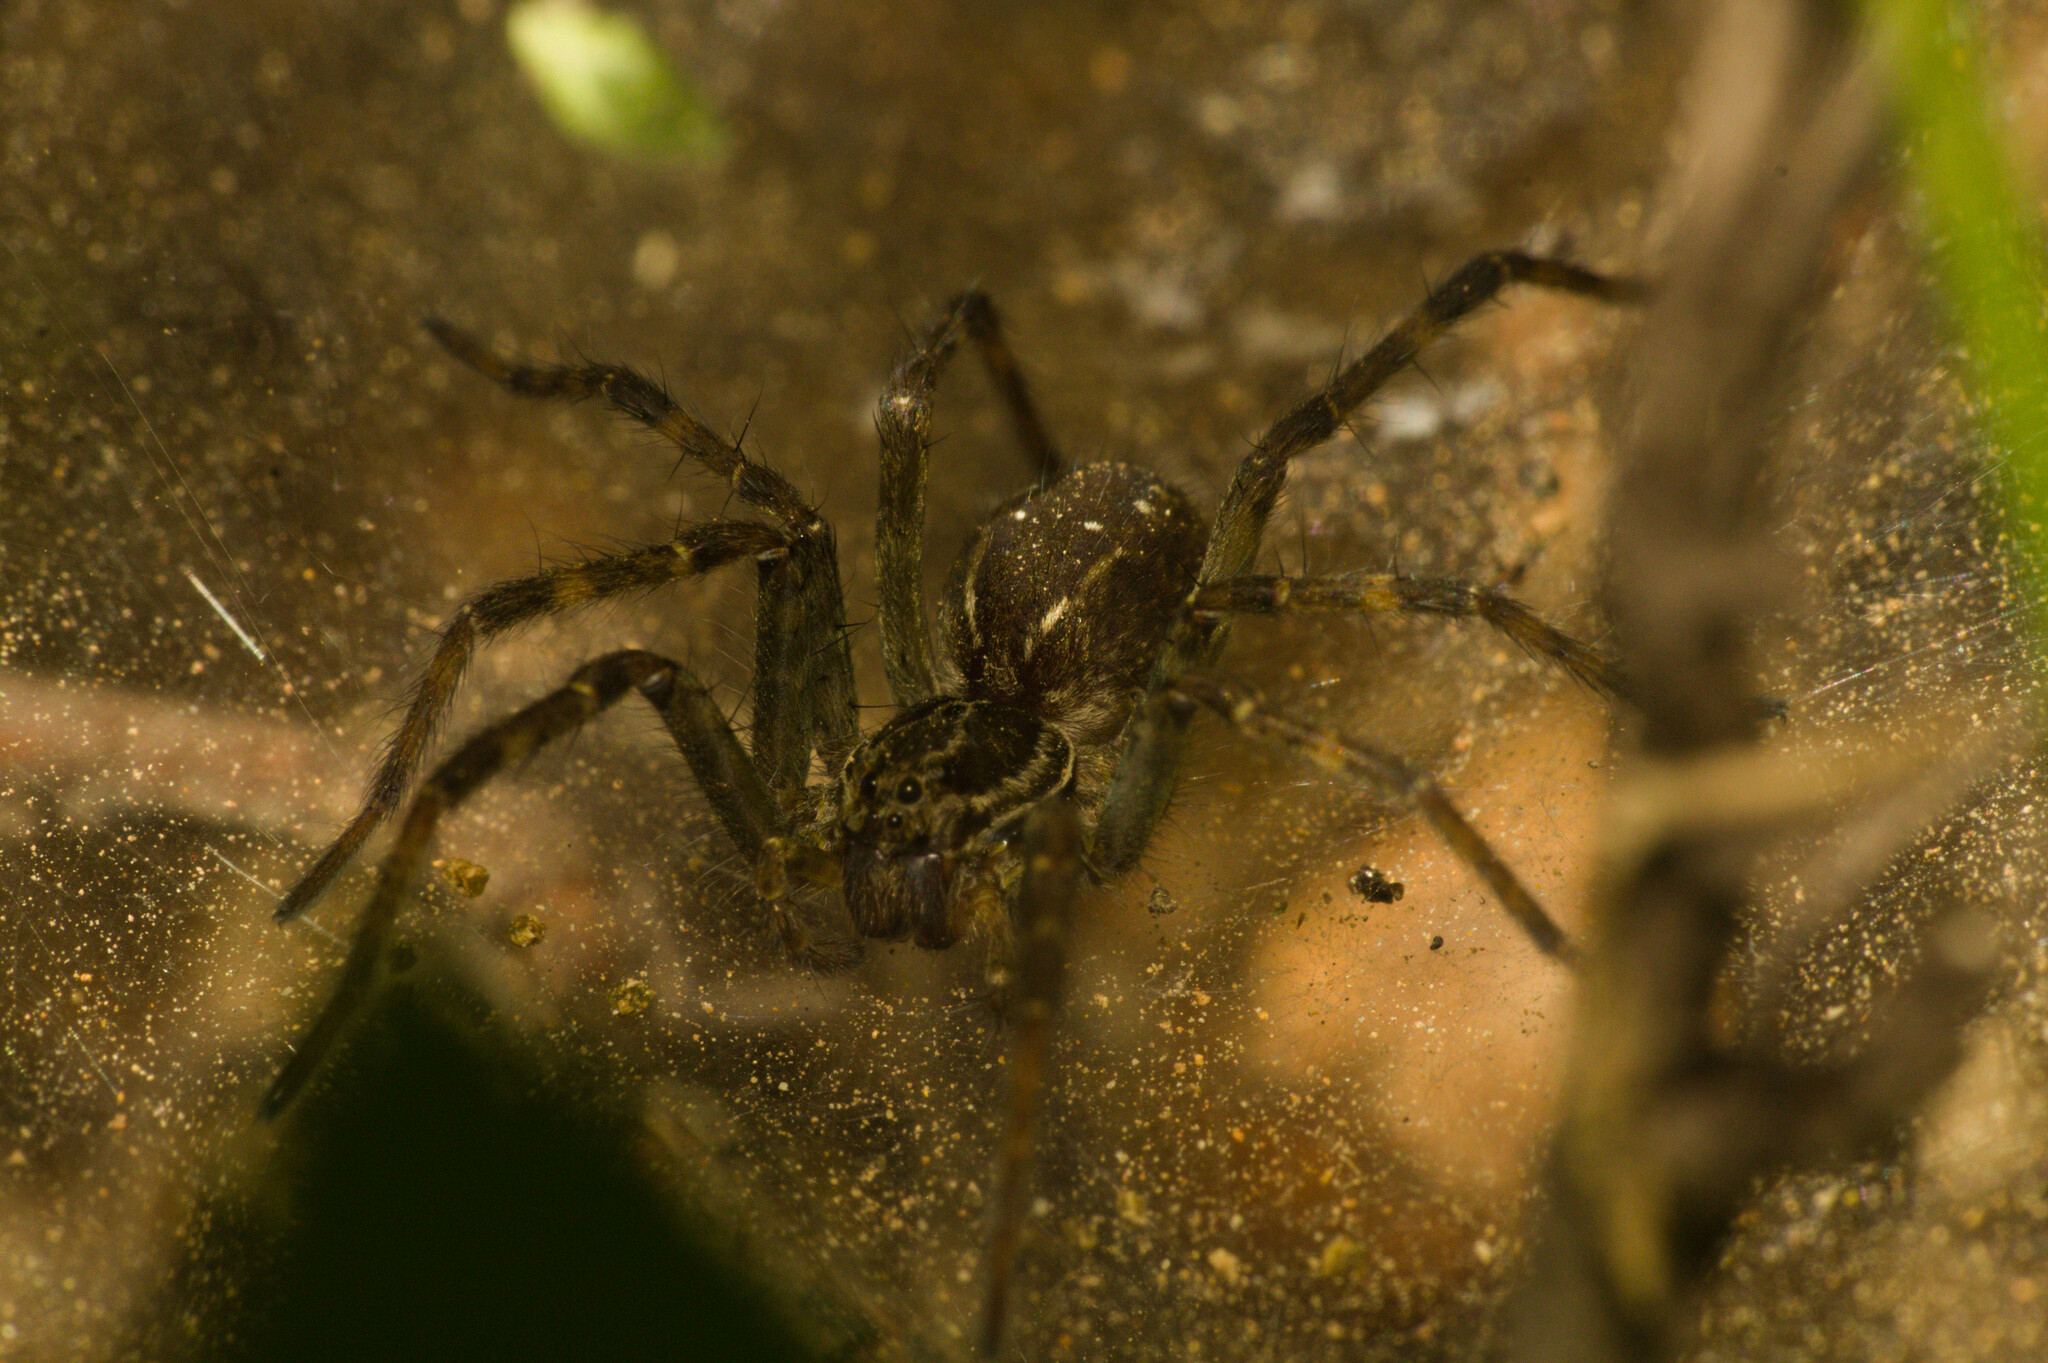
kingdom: Animalia
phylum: Arthropoda
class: Arachnida
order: Araneae
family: Lycosidae
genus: Aglaoctenus
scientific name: Aglaoctenus lagotis
